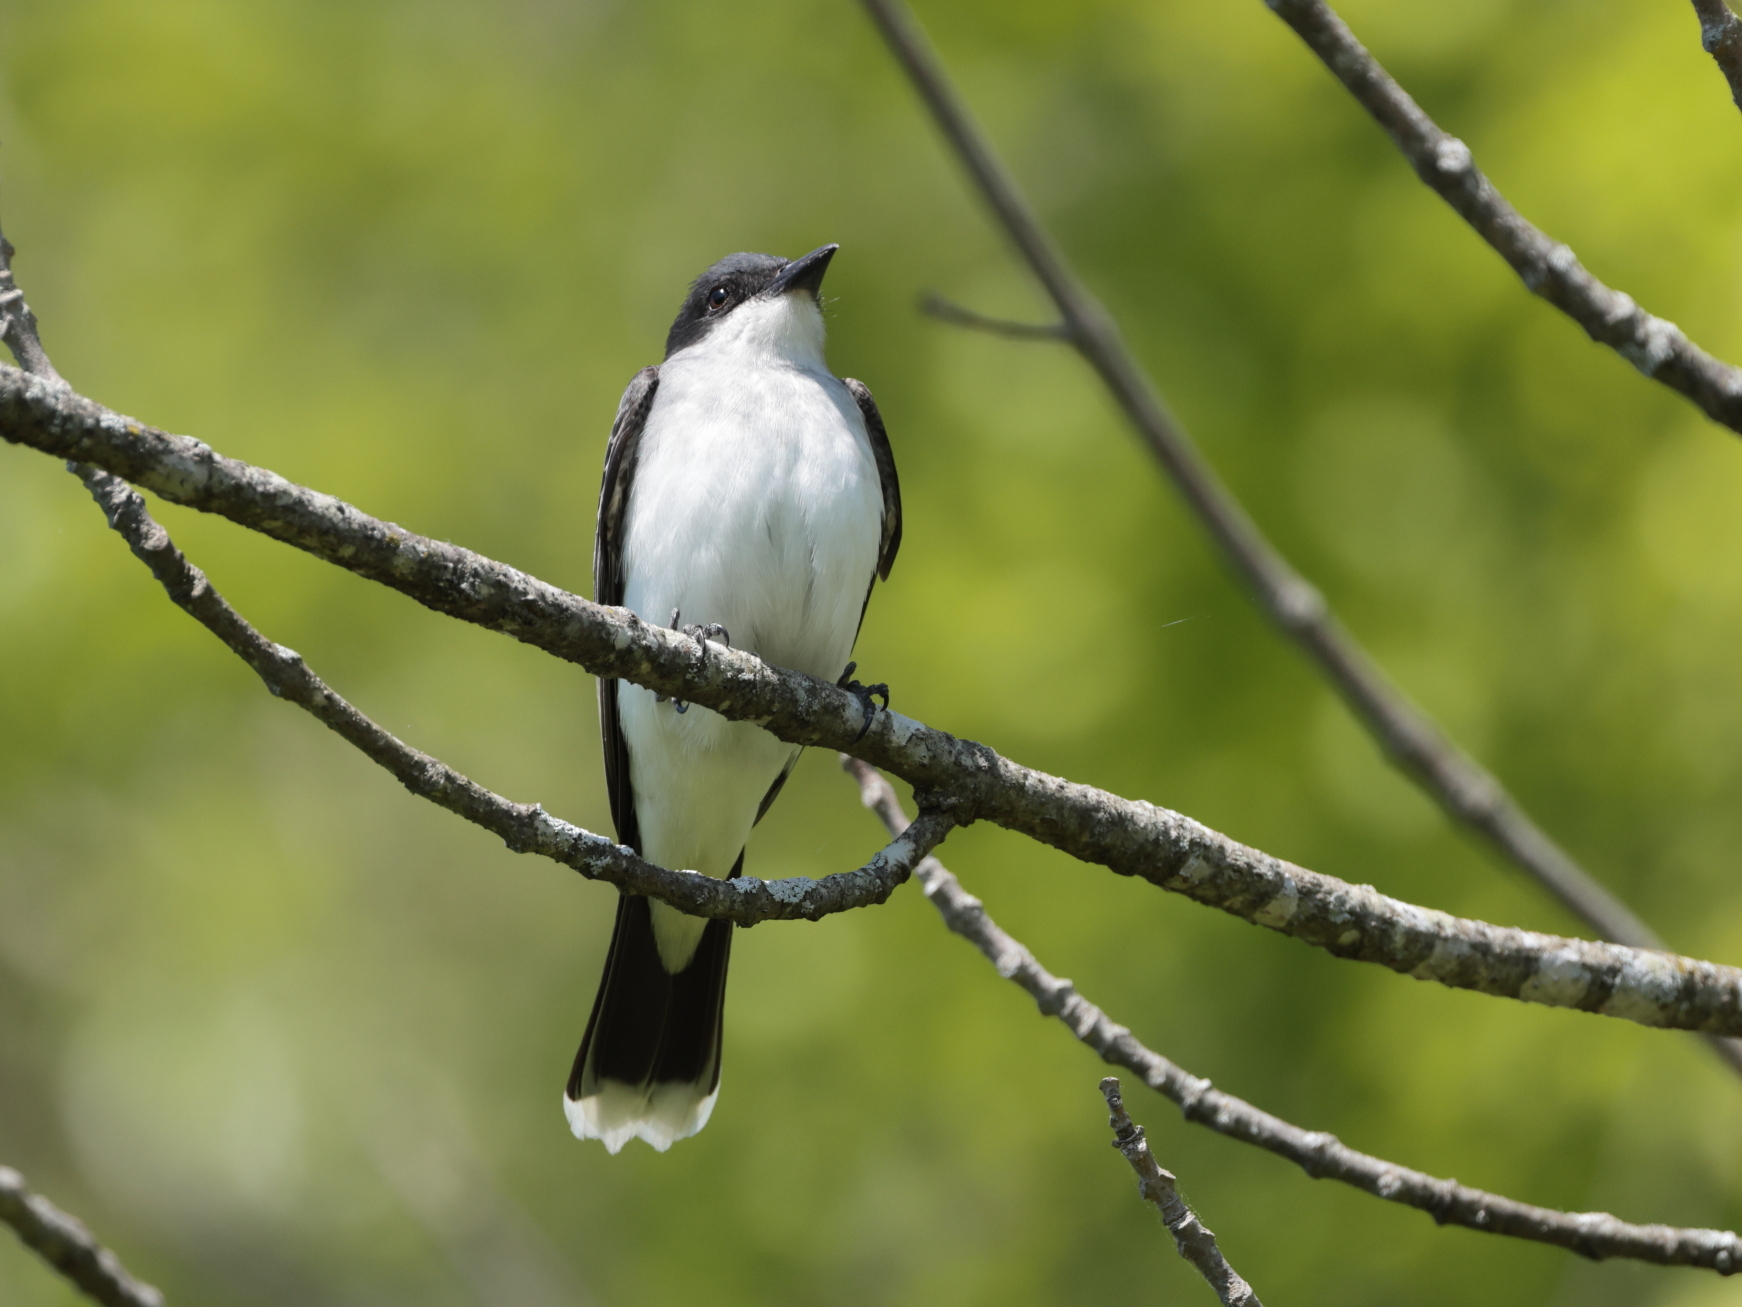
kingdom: Animalia
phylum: Chordata
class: Aves
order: Passeriformes
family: Tyrannidae
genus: Tyrannus
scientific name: Tyrannus tyrannus
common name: Eastern kingbird
